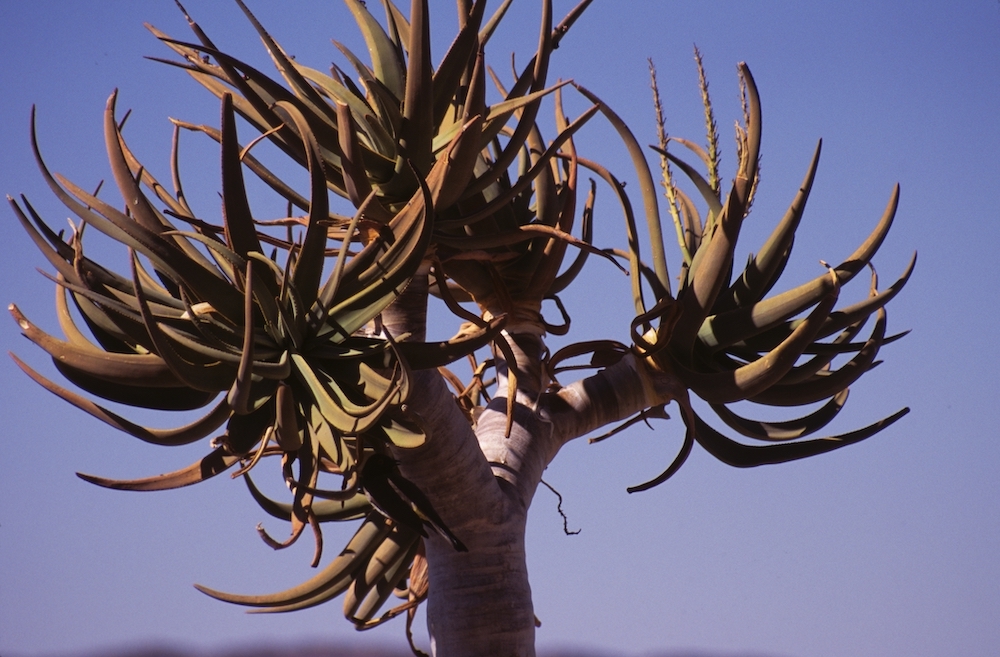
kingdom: Plantae
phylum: Tracheophyta
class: Liliopsida
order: Asparagales
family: Asphodelaceae
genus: Aloidendron
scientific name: Aloidendron dichotomum
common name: Quiver tree
